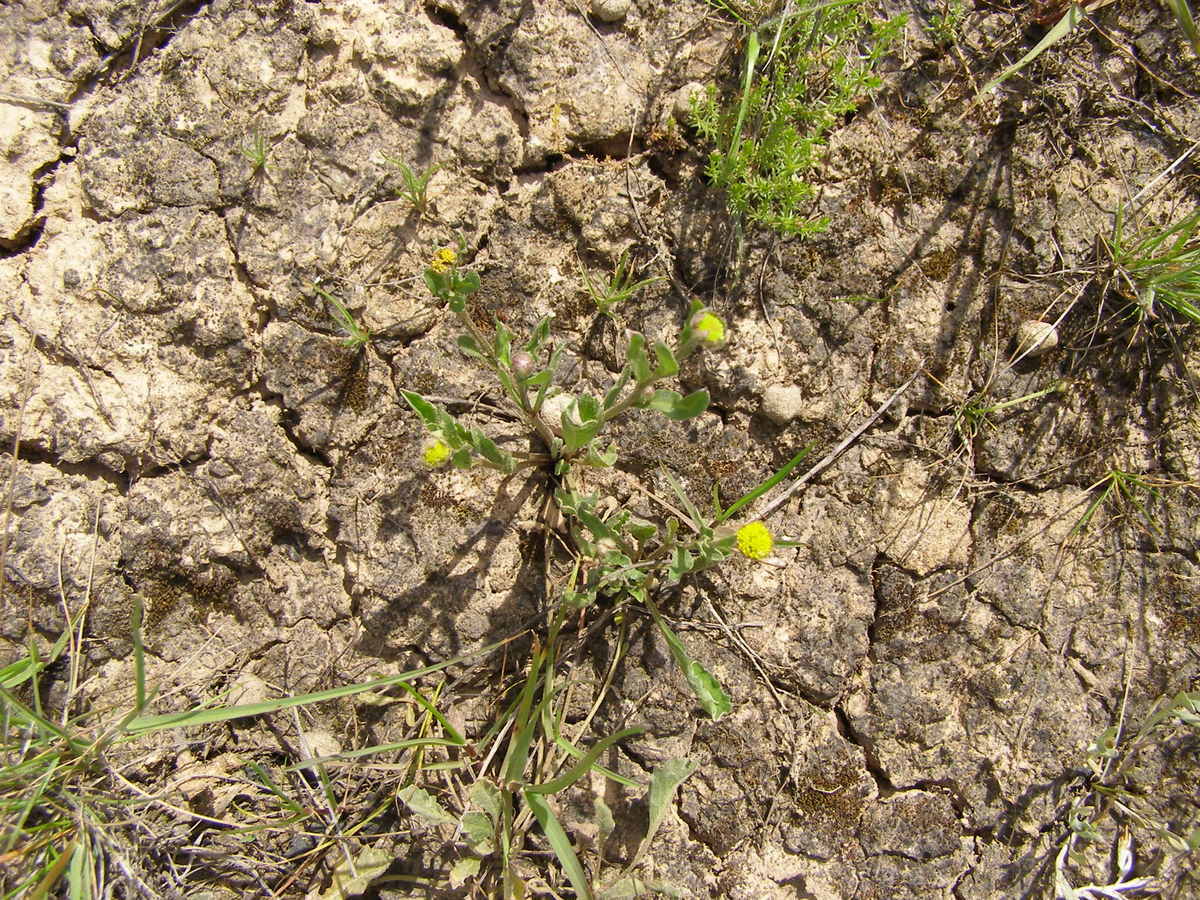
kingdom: Plantae
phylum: Tracheophyta
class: Magnoliopsida
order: Asterales
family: Asteraceae
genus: Triptilodiscus
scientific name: Triptilodiscus pygmaeus
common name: Common sunray
